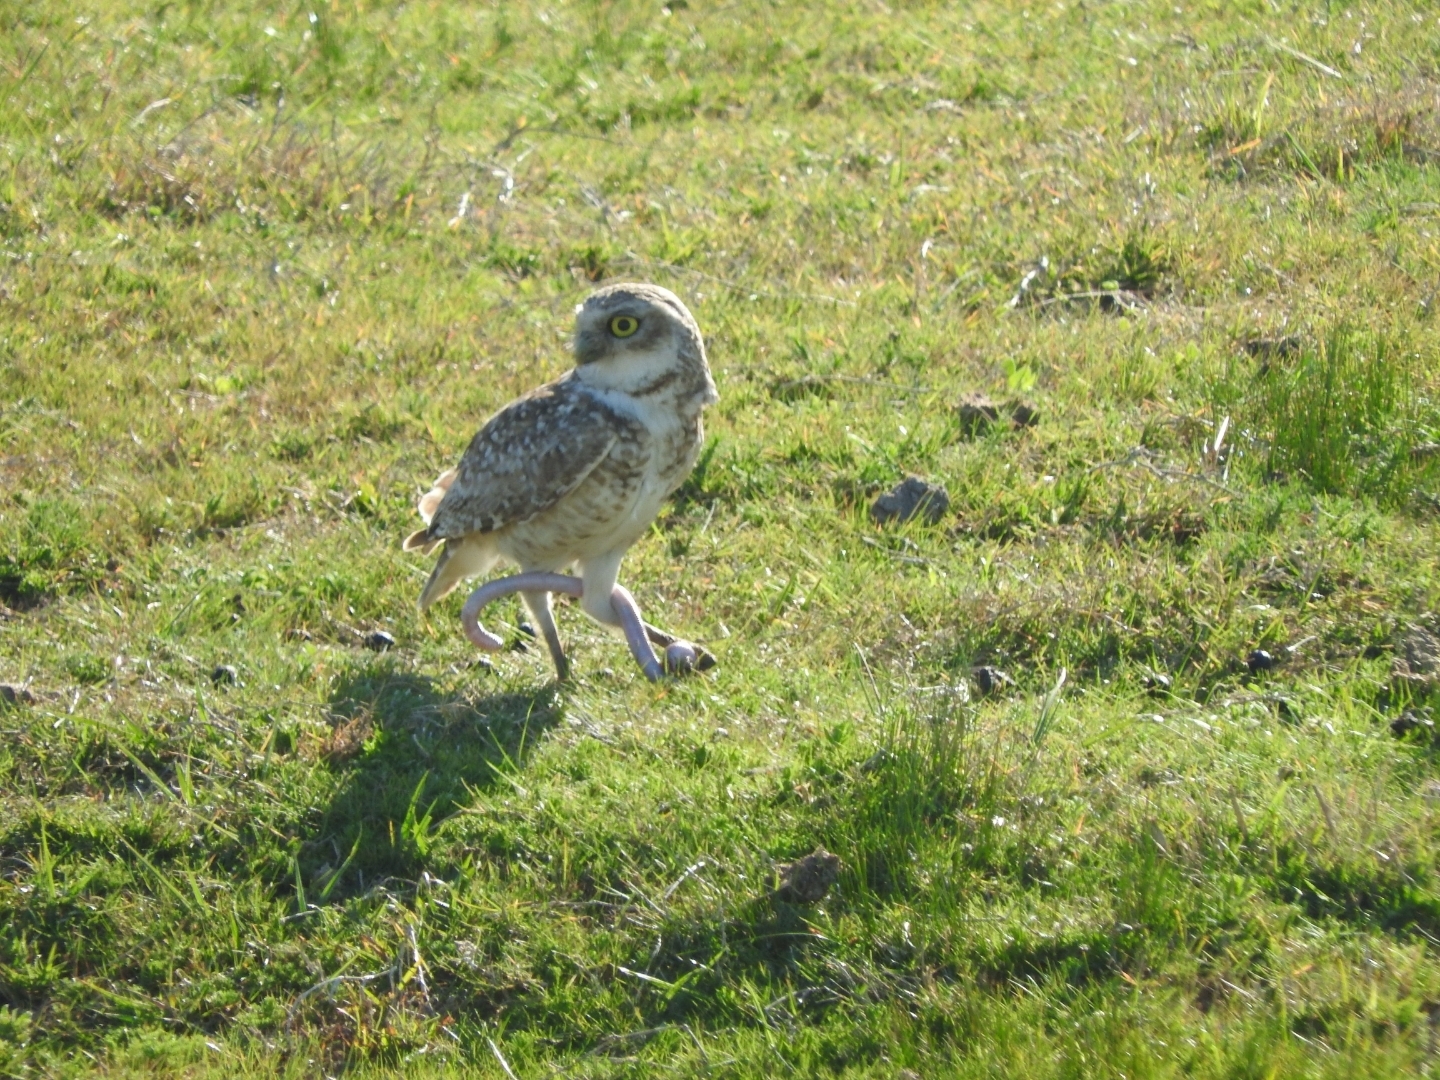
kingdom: Animalia
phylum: Chordata
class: Aves
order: Strigiformes
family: Strigidae
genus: Athene
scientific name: Athene cunicularia
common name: Burrowing owl
